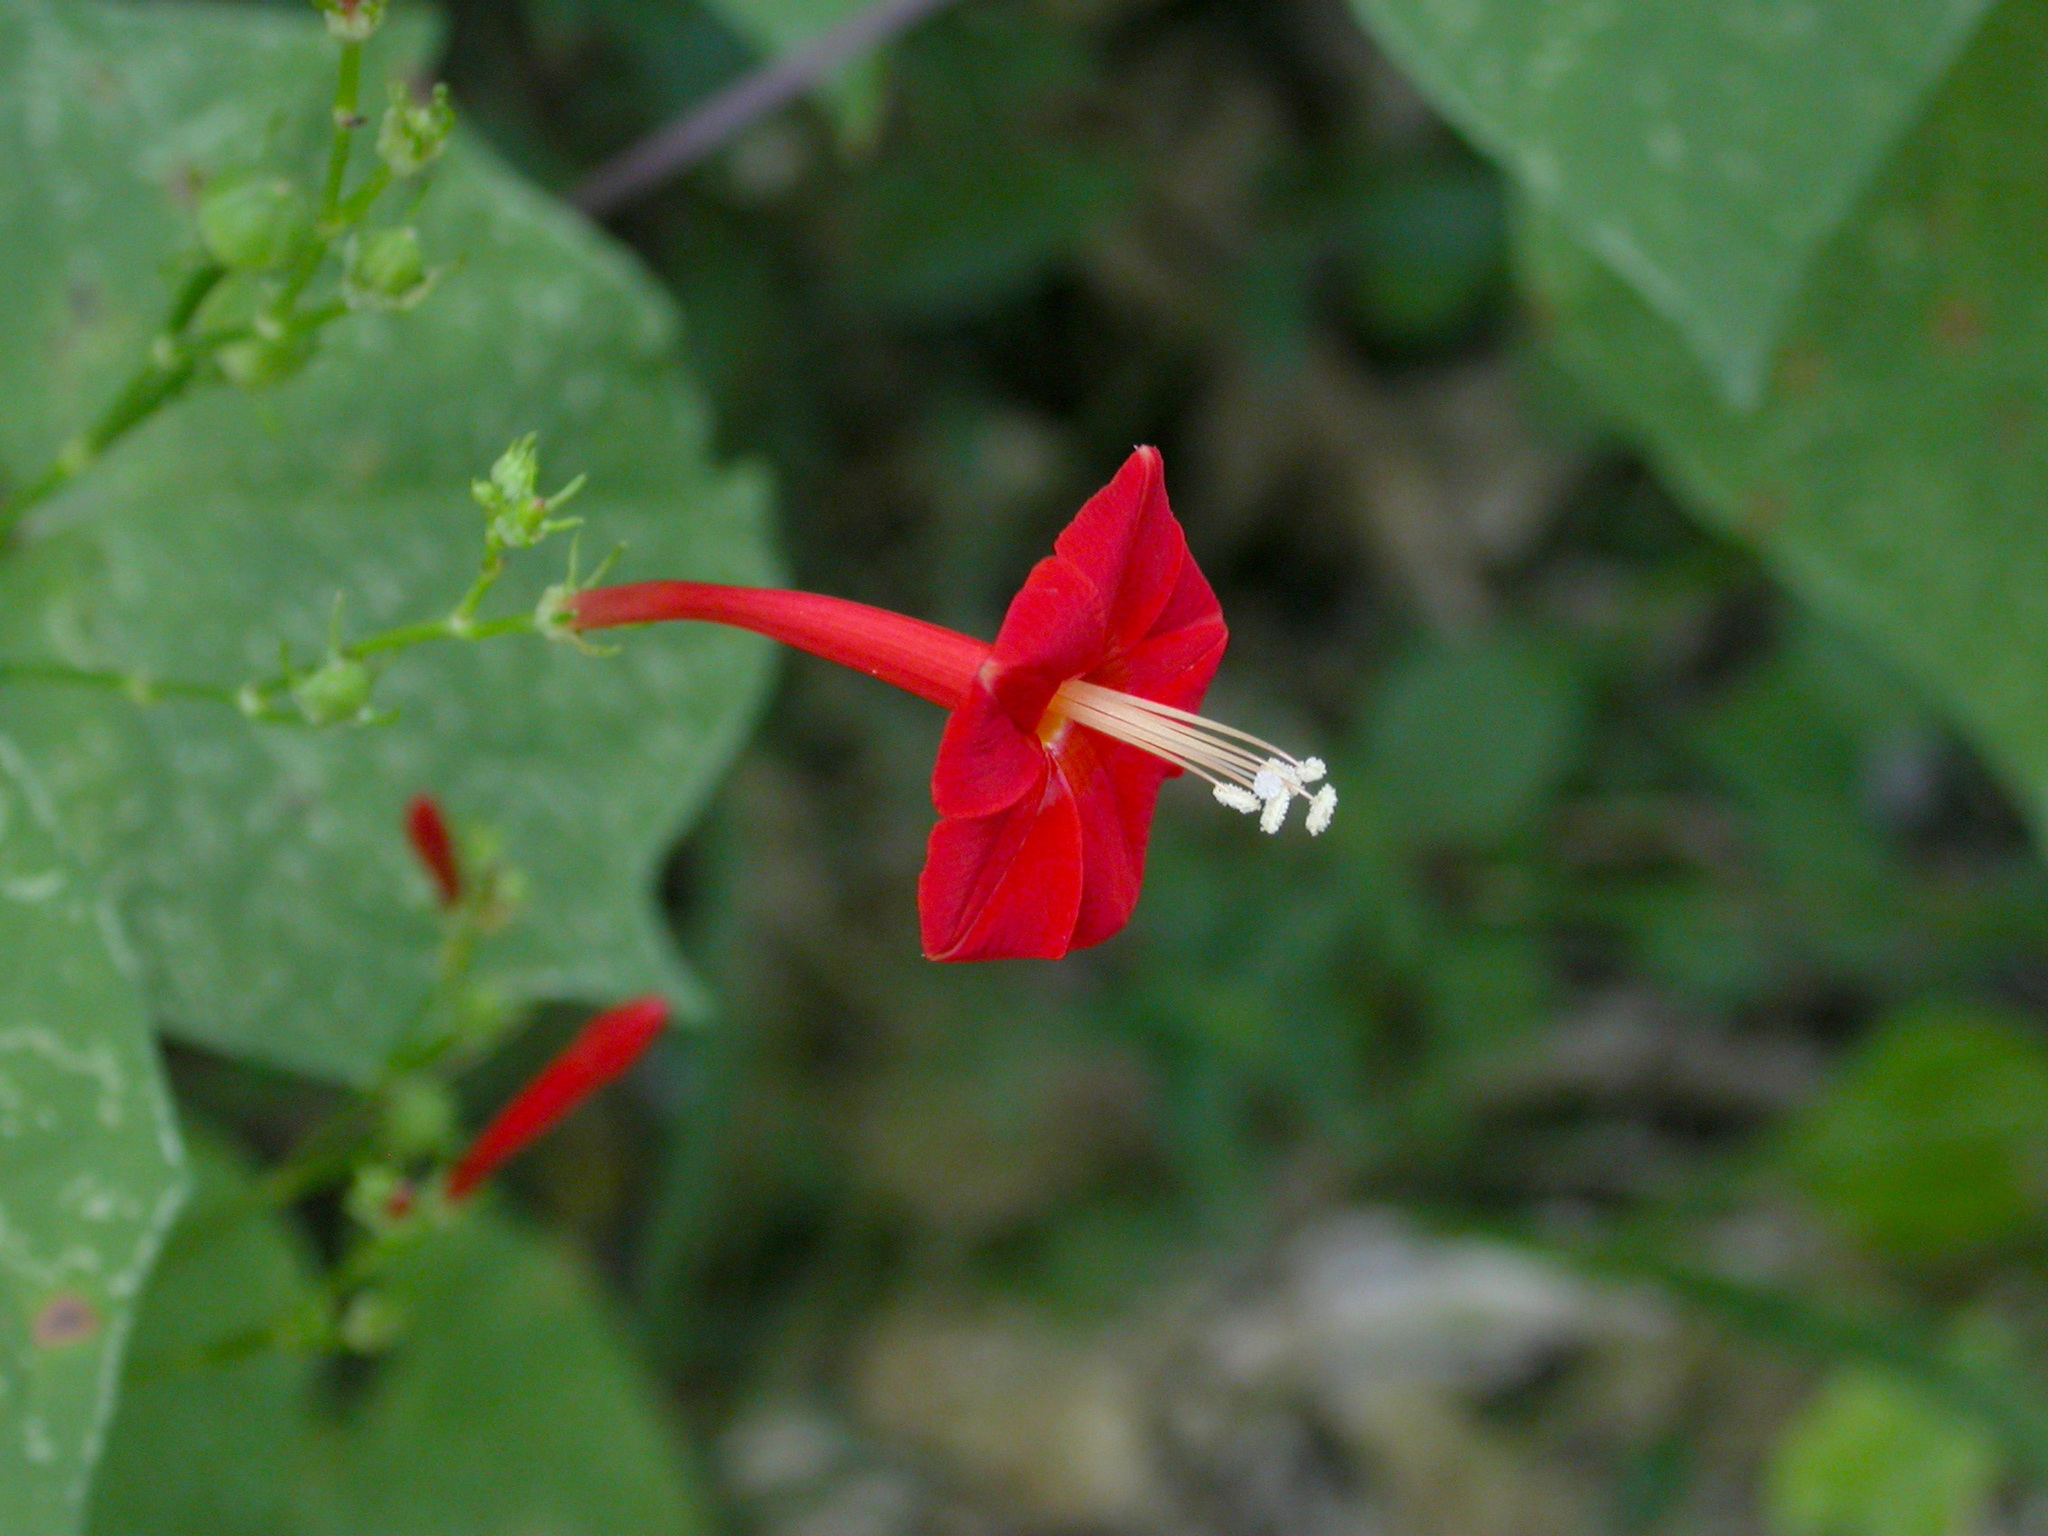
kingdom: Plantae
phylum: Tracheophyta
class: Magnoliopsida
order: Solanales
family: Convolvulaceae
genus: Ipomoea
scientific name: Ipomoea hederifolia
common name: Ivy-leaf morning-glory
